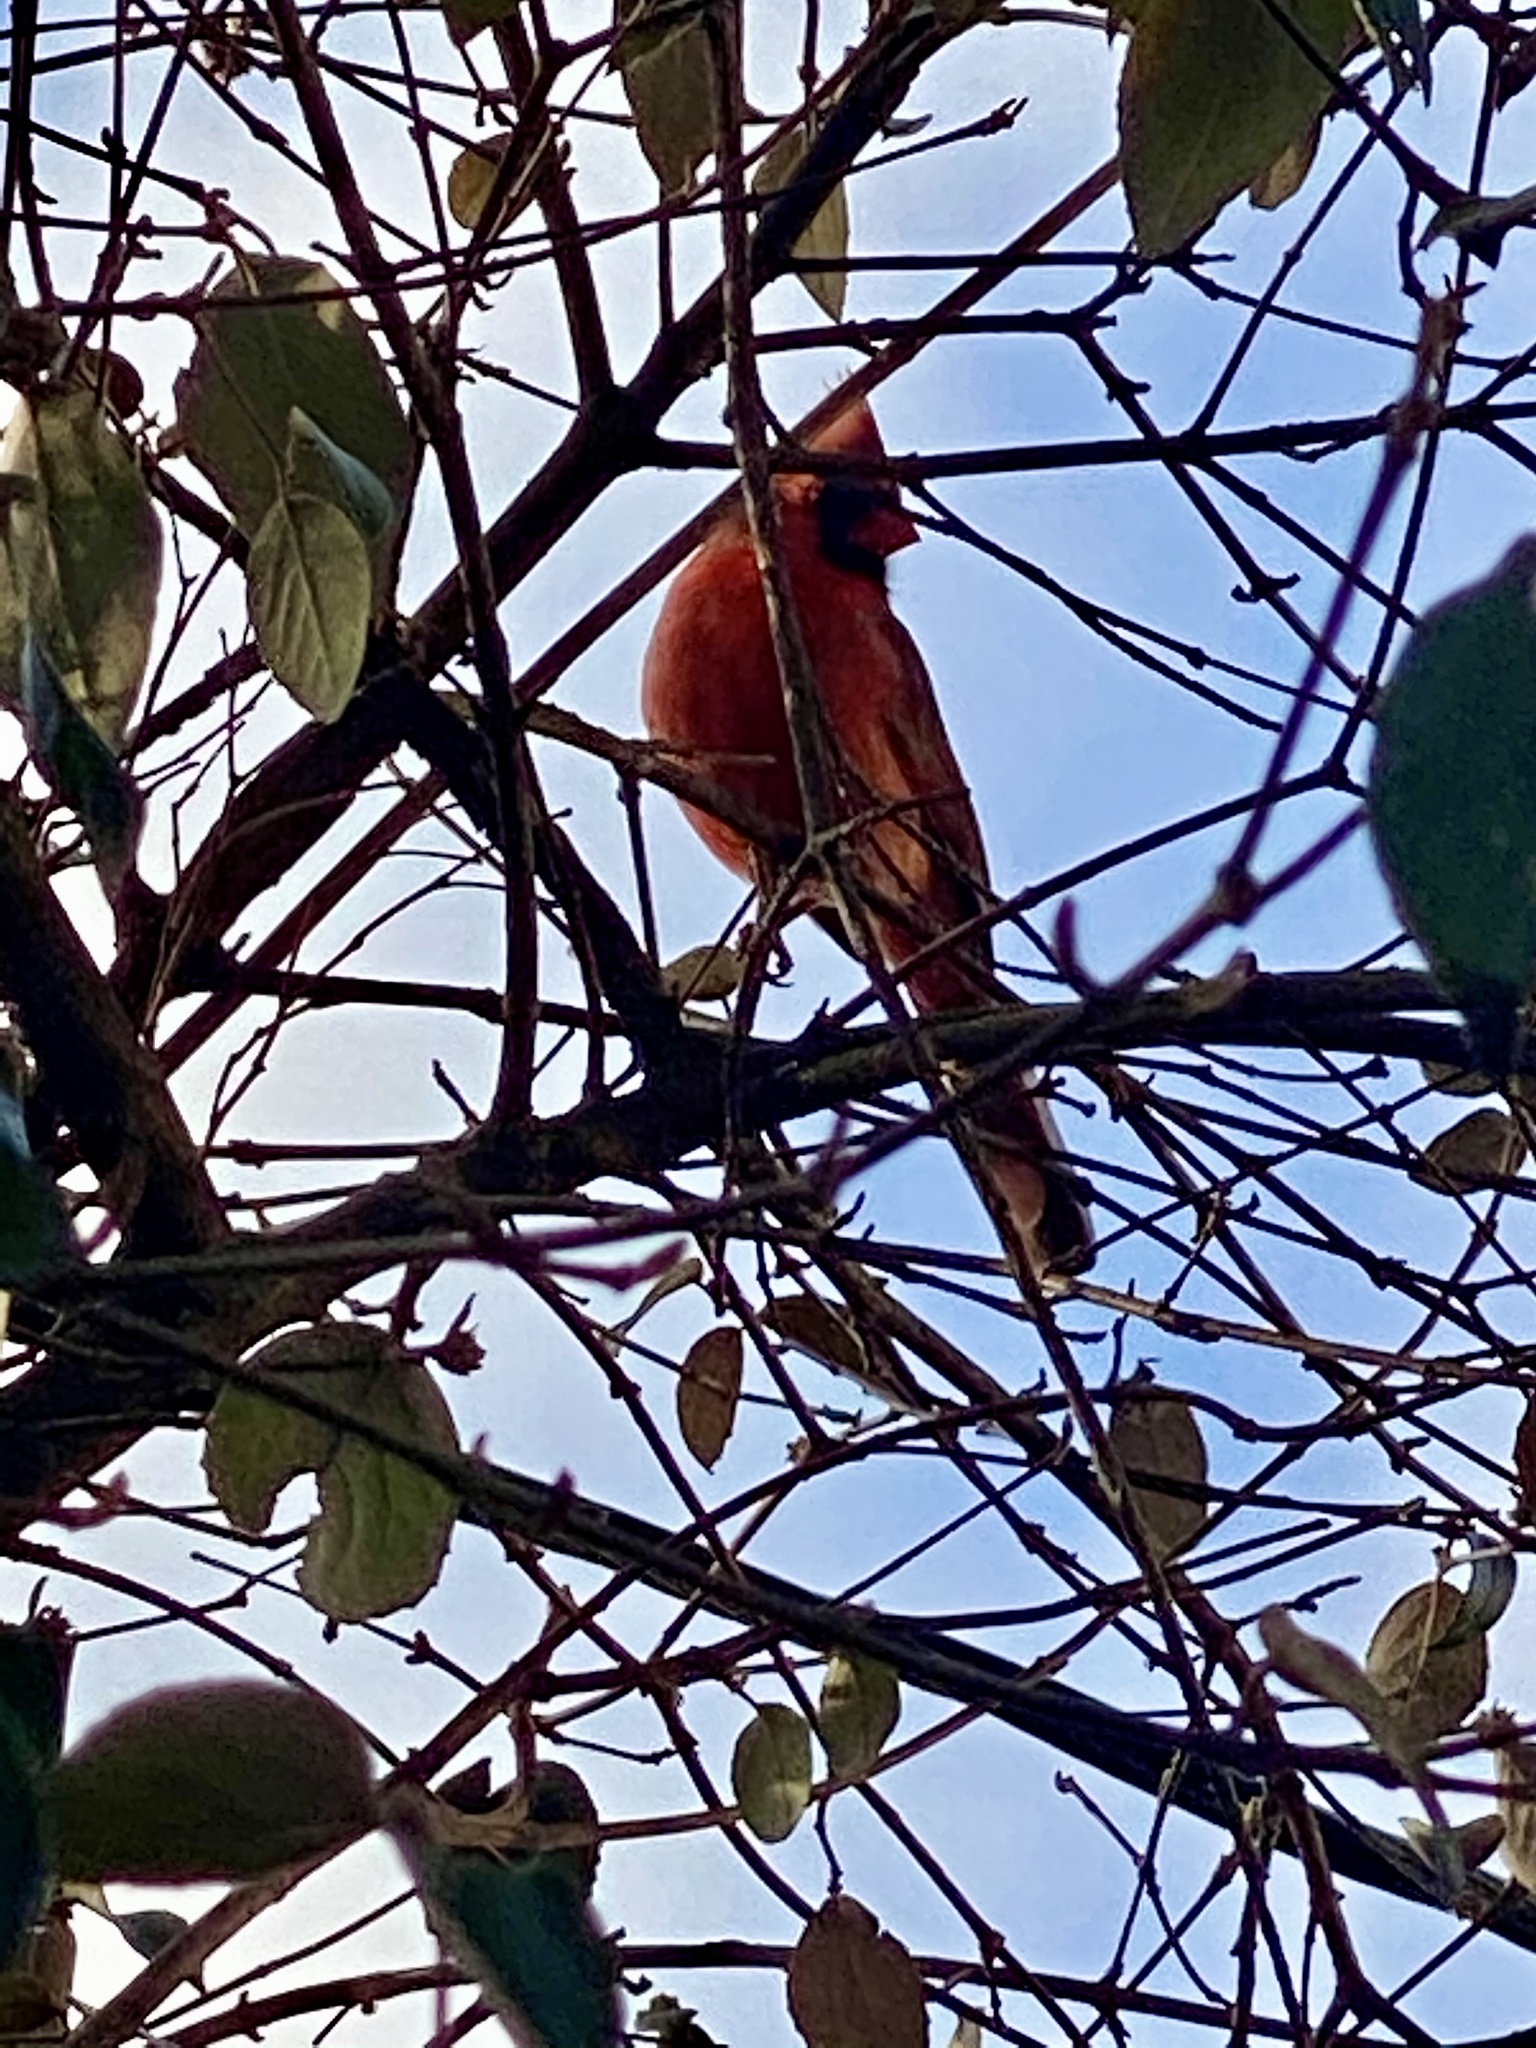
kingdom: Animalia
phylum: Chordata
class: Aves
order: Passeriformes
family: Cardinalidae
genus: Cardinalis
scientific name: Cardinalis cardinalis
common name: Northern cardinal
